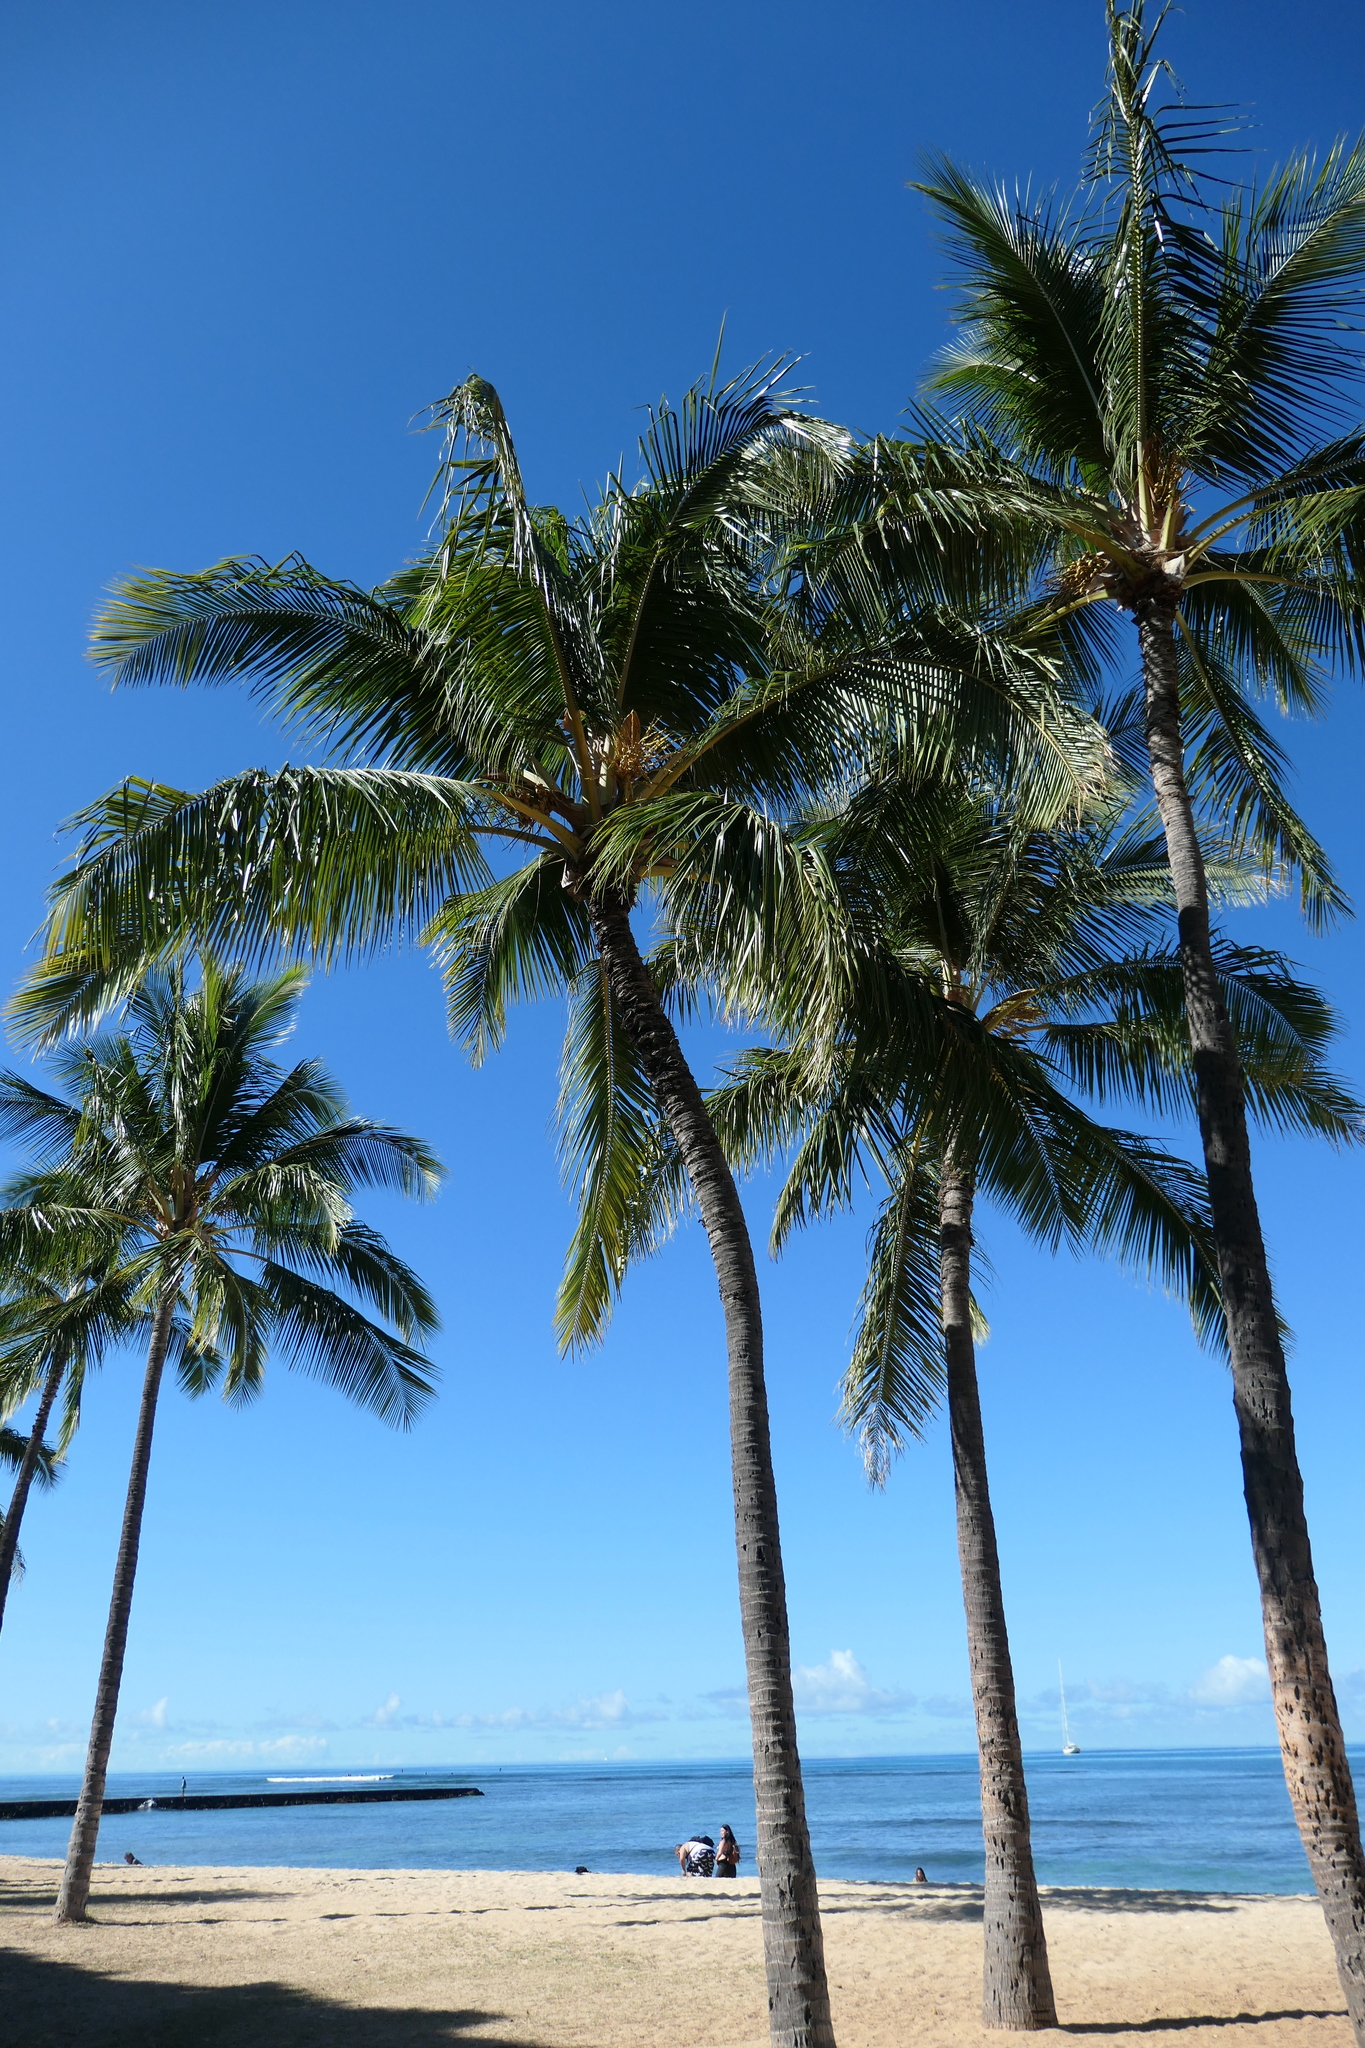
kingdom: Plantae
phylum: Tracheophyta
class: Liliopsida
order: Arecales
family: Arecaceae
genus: Cocos
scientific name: Cocos nucifera
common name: Coconut palm
